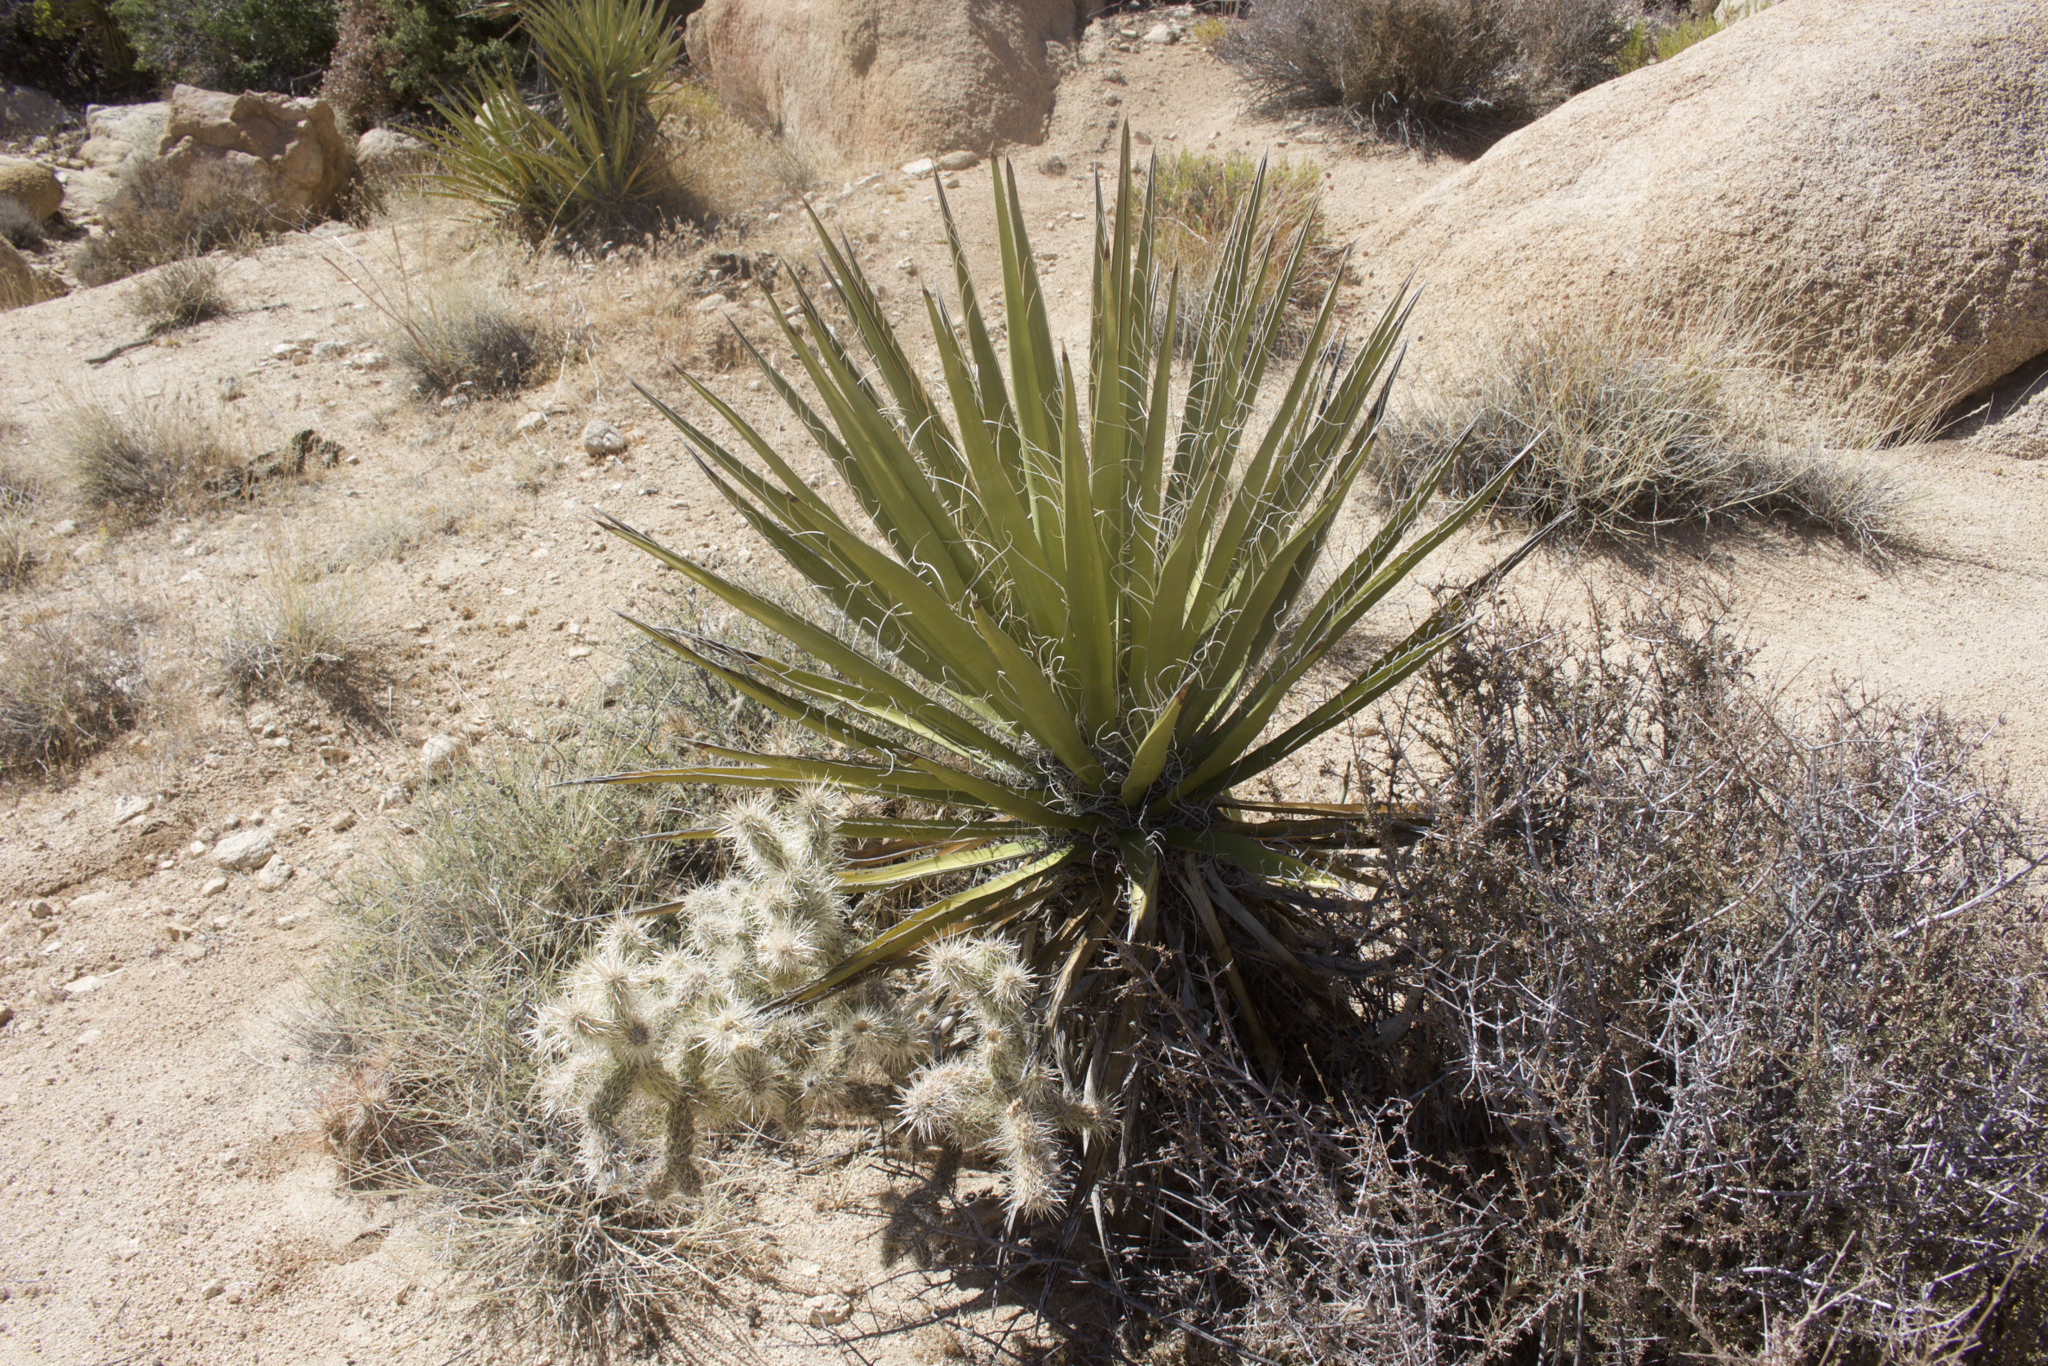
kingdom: Plantae
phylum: Tracheophyta
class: Liliopsida
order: Asparagales
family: Asparagaceae
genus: Yucca
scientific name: Yucca schidigera
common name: Mojave yucca
